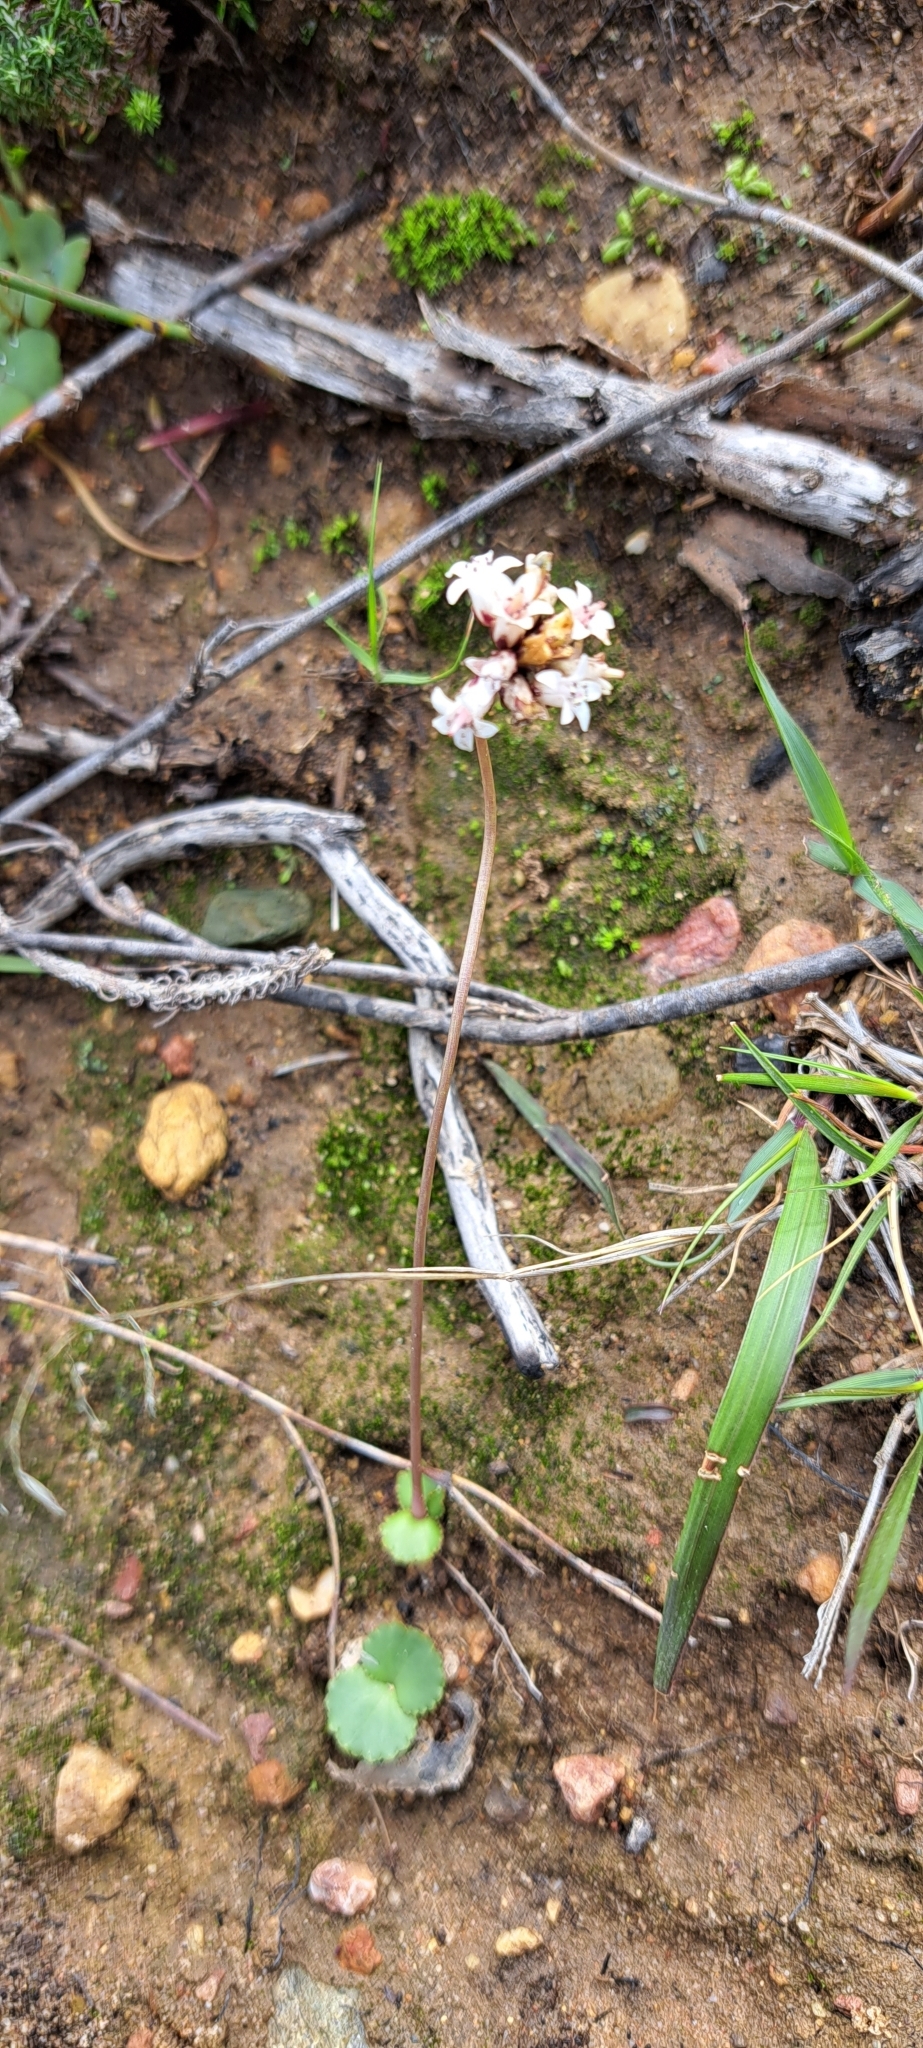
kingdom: Plantae
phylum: Tracheophyta
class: Magnoliopsida
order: Saxifragales
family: Crassulaceae
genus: Crassula
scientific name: Crassula saxifraga
